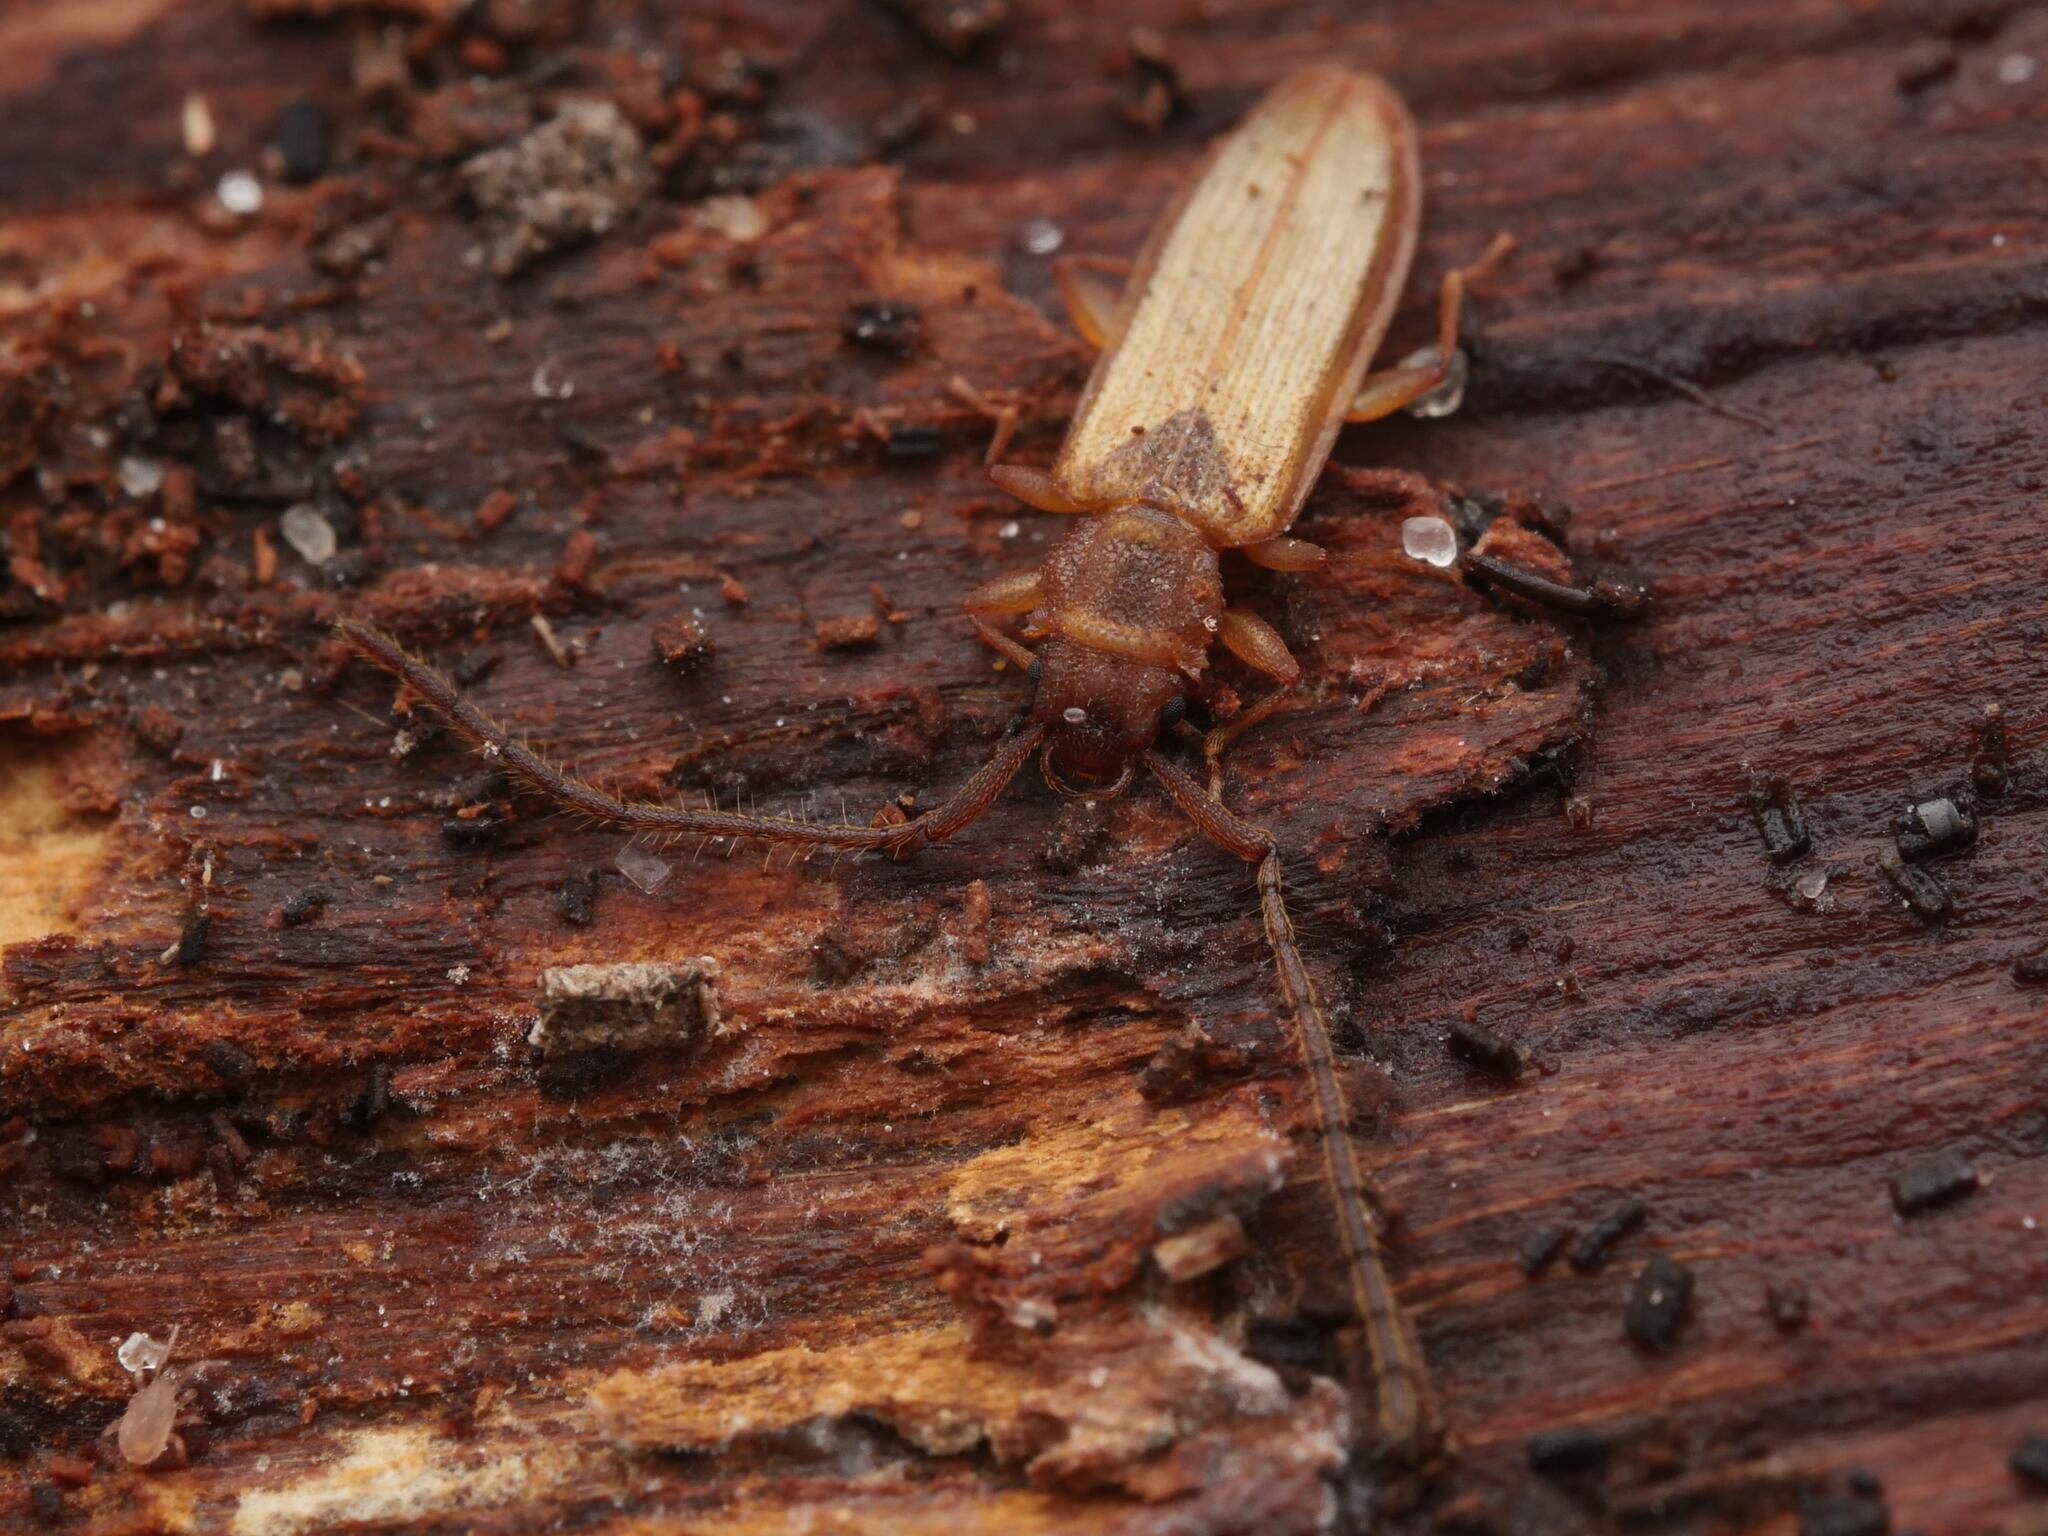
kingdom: Animalia
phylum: Arthropoda
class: Insecta
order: Coleoptera
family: Silvanidae
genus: Uleiota
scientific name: Uleiota planatus
